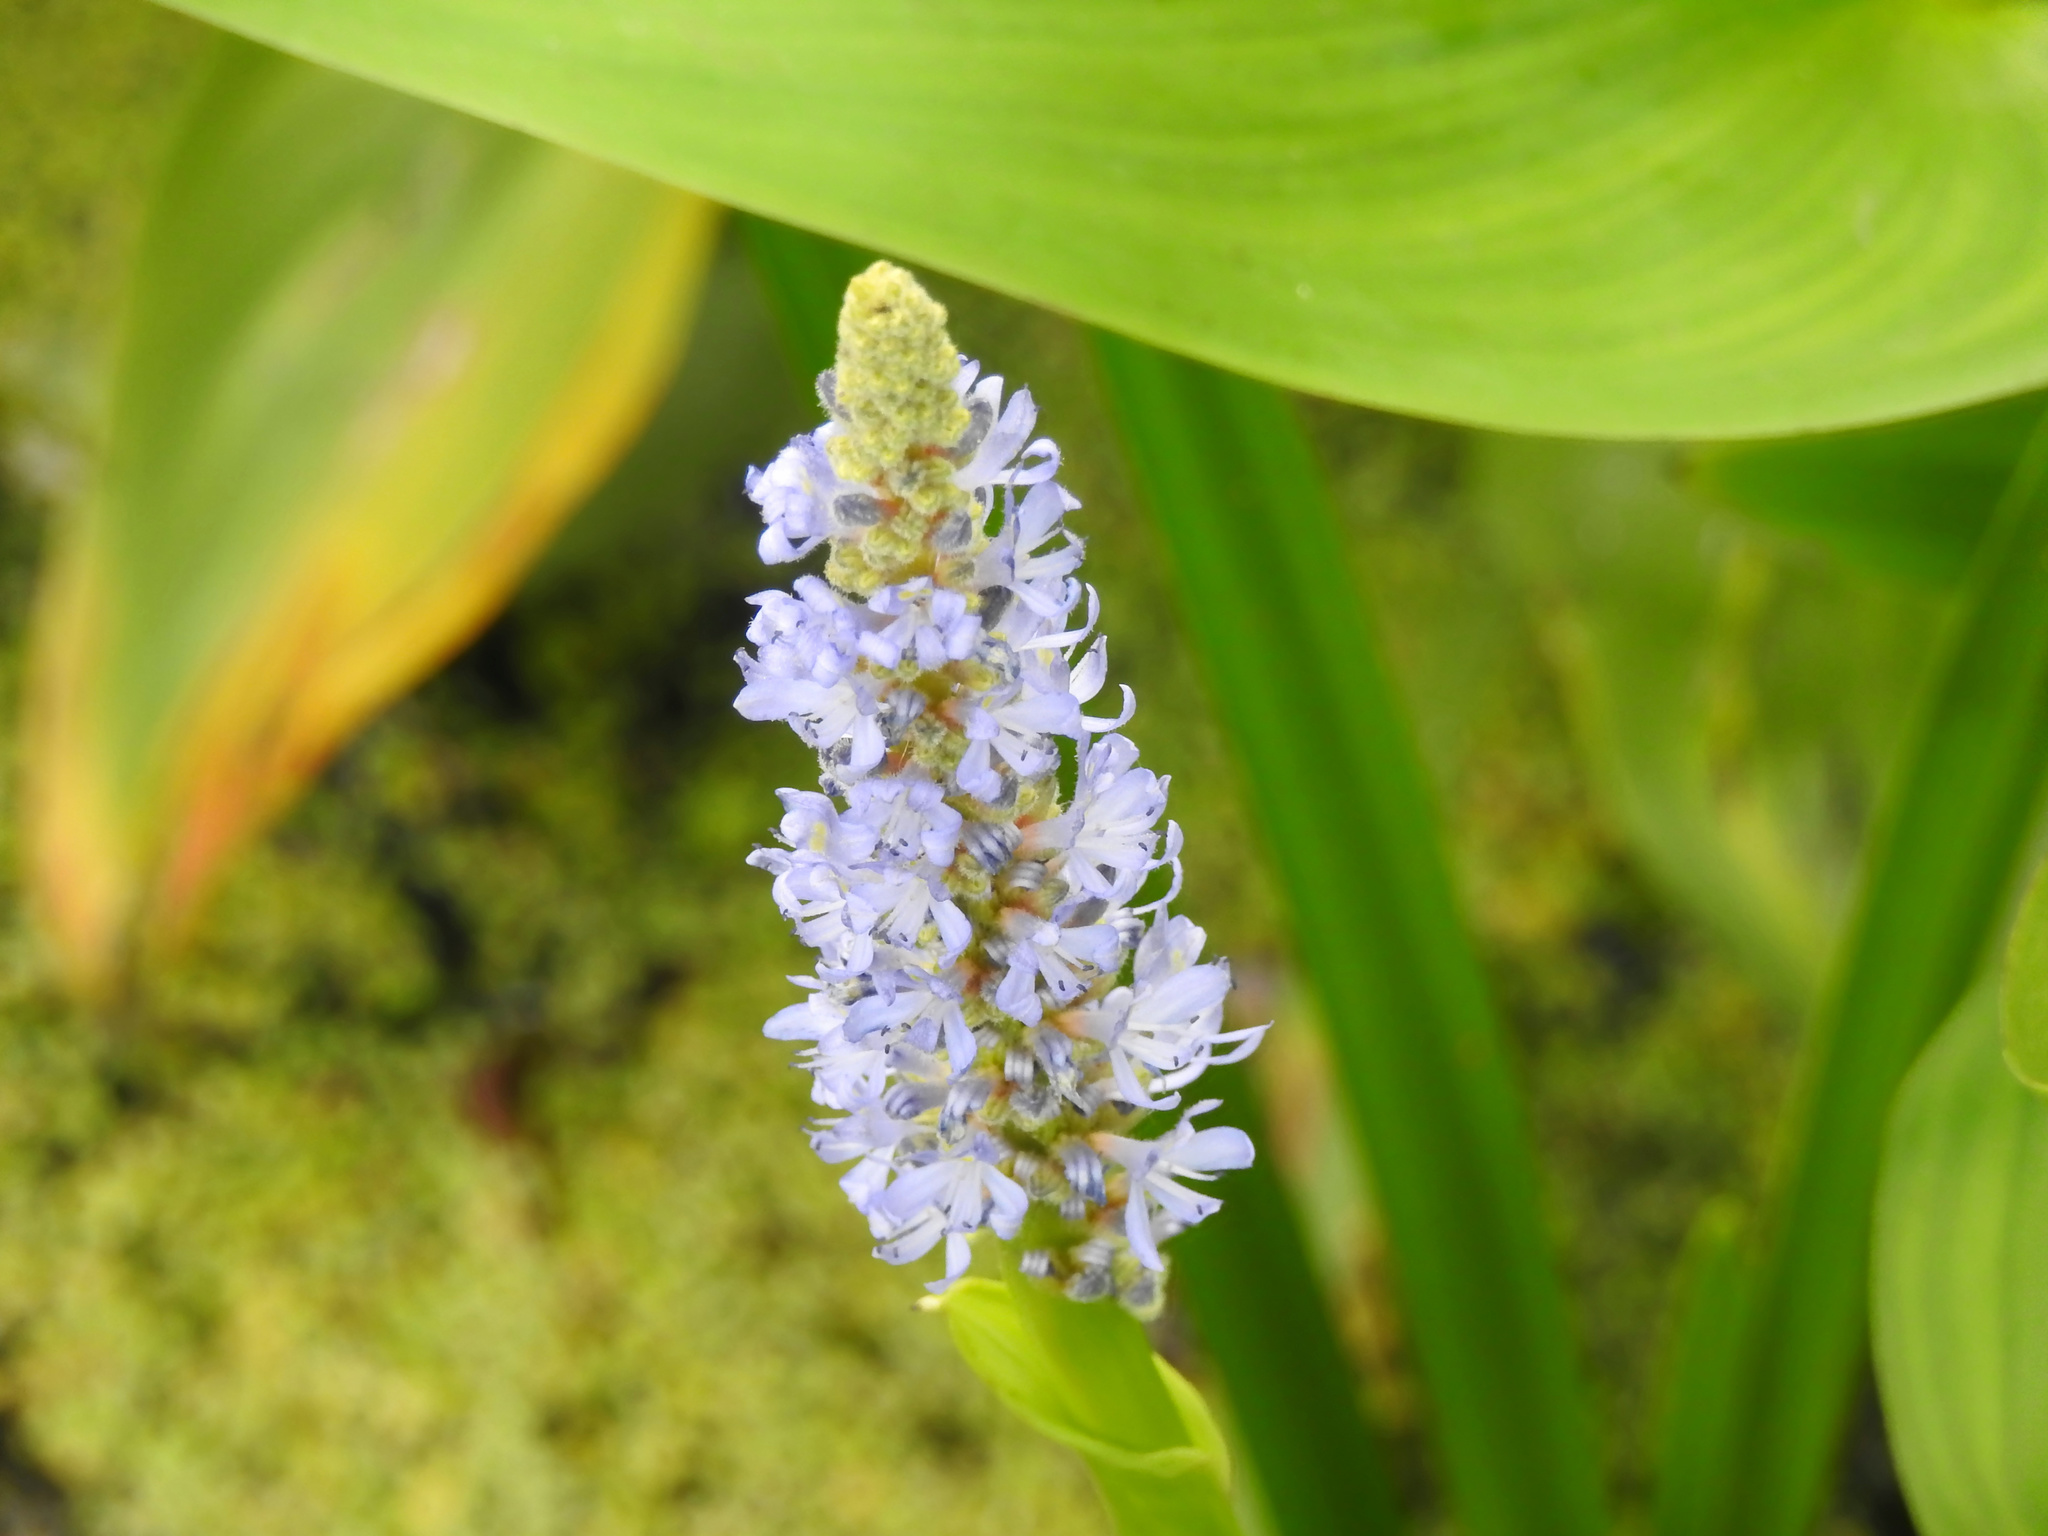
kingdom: Plantae
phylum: Tracheophyta
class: Liliopsida
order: Commelinales
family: Pontederiaceae
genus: Pontederia
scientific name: Pontederia cordata
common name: Pickerelweed
